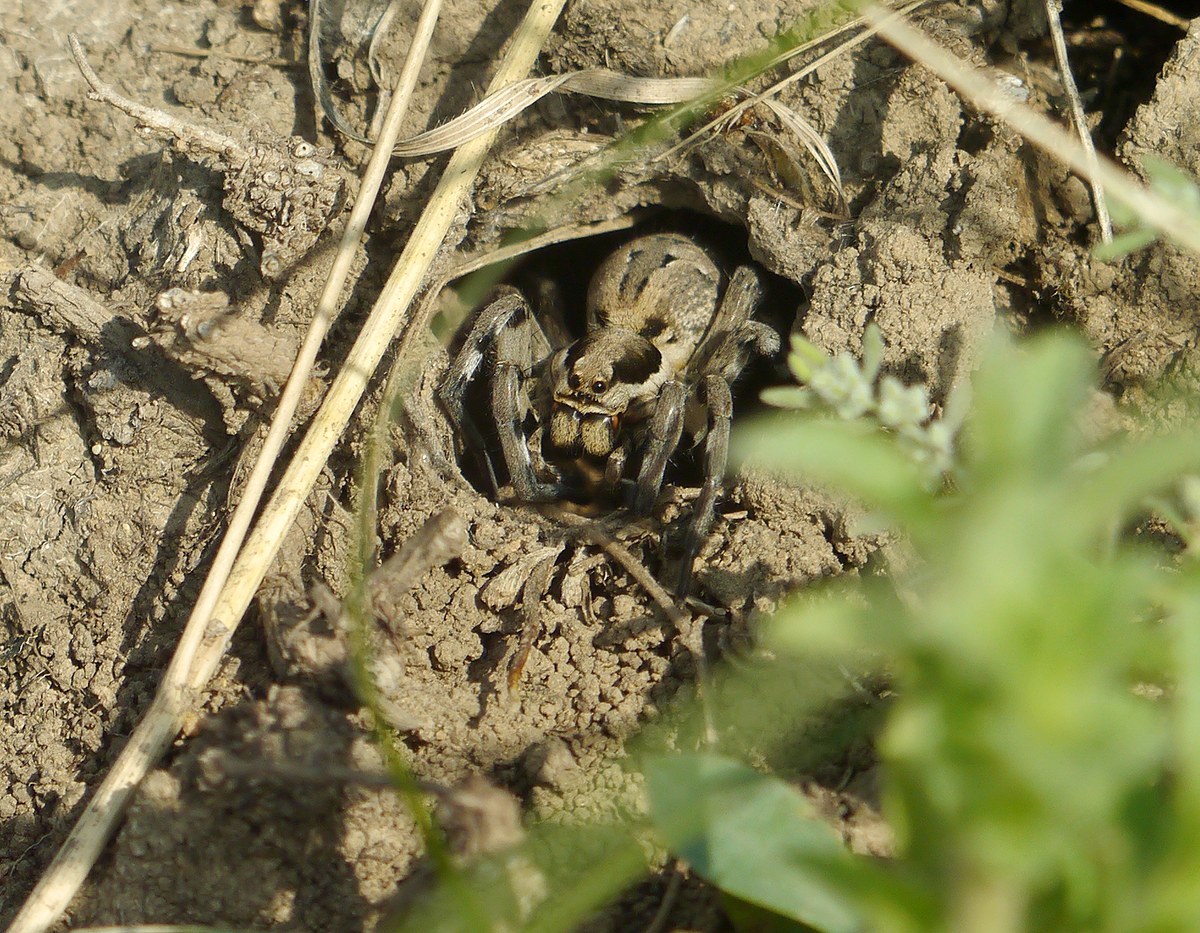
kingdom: Animalia
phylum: Arthropoda
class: Arachnida
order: Araneae
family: Lycosidae
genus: Lycosa
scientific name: Lycosa praegrandis
